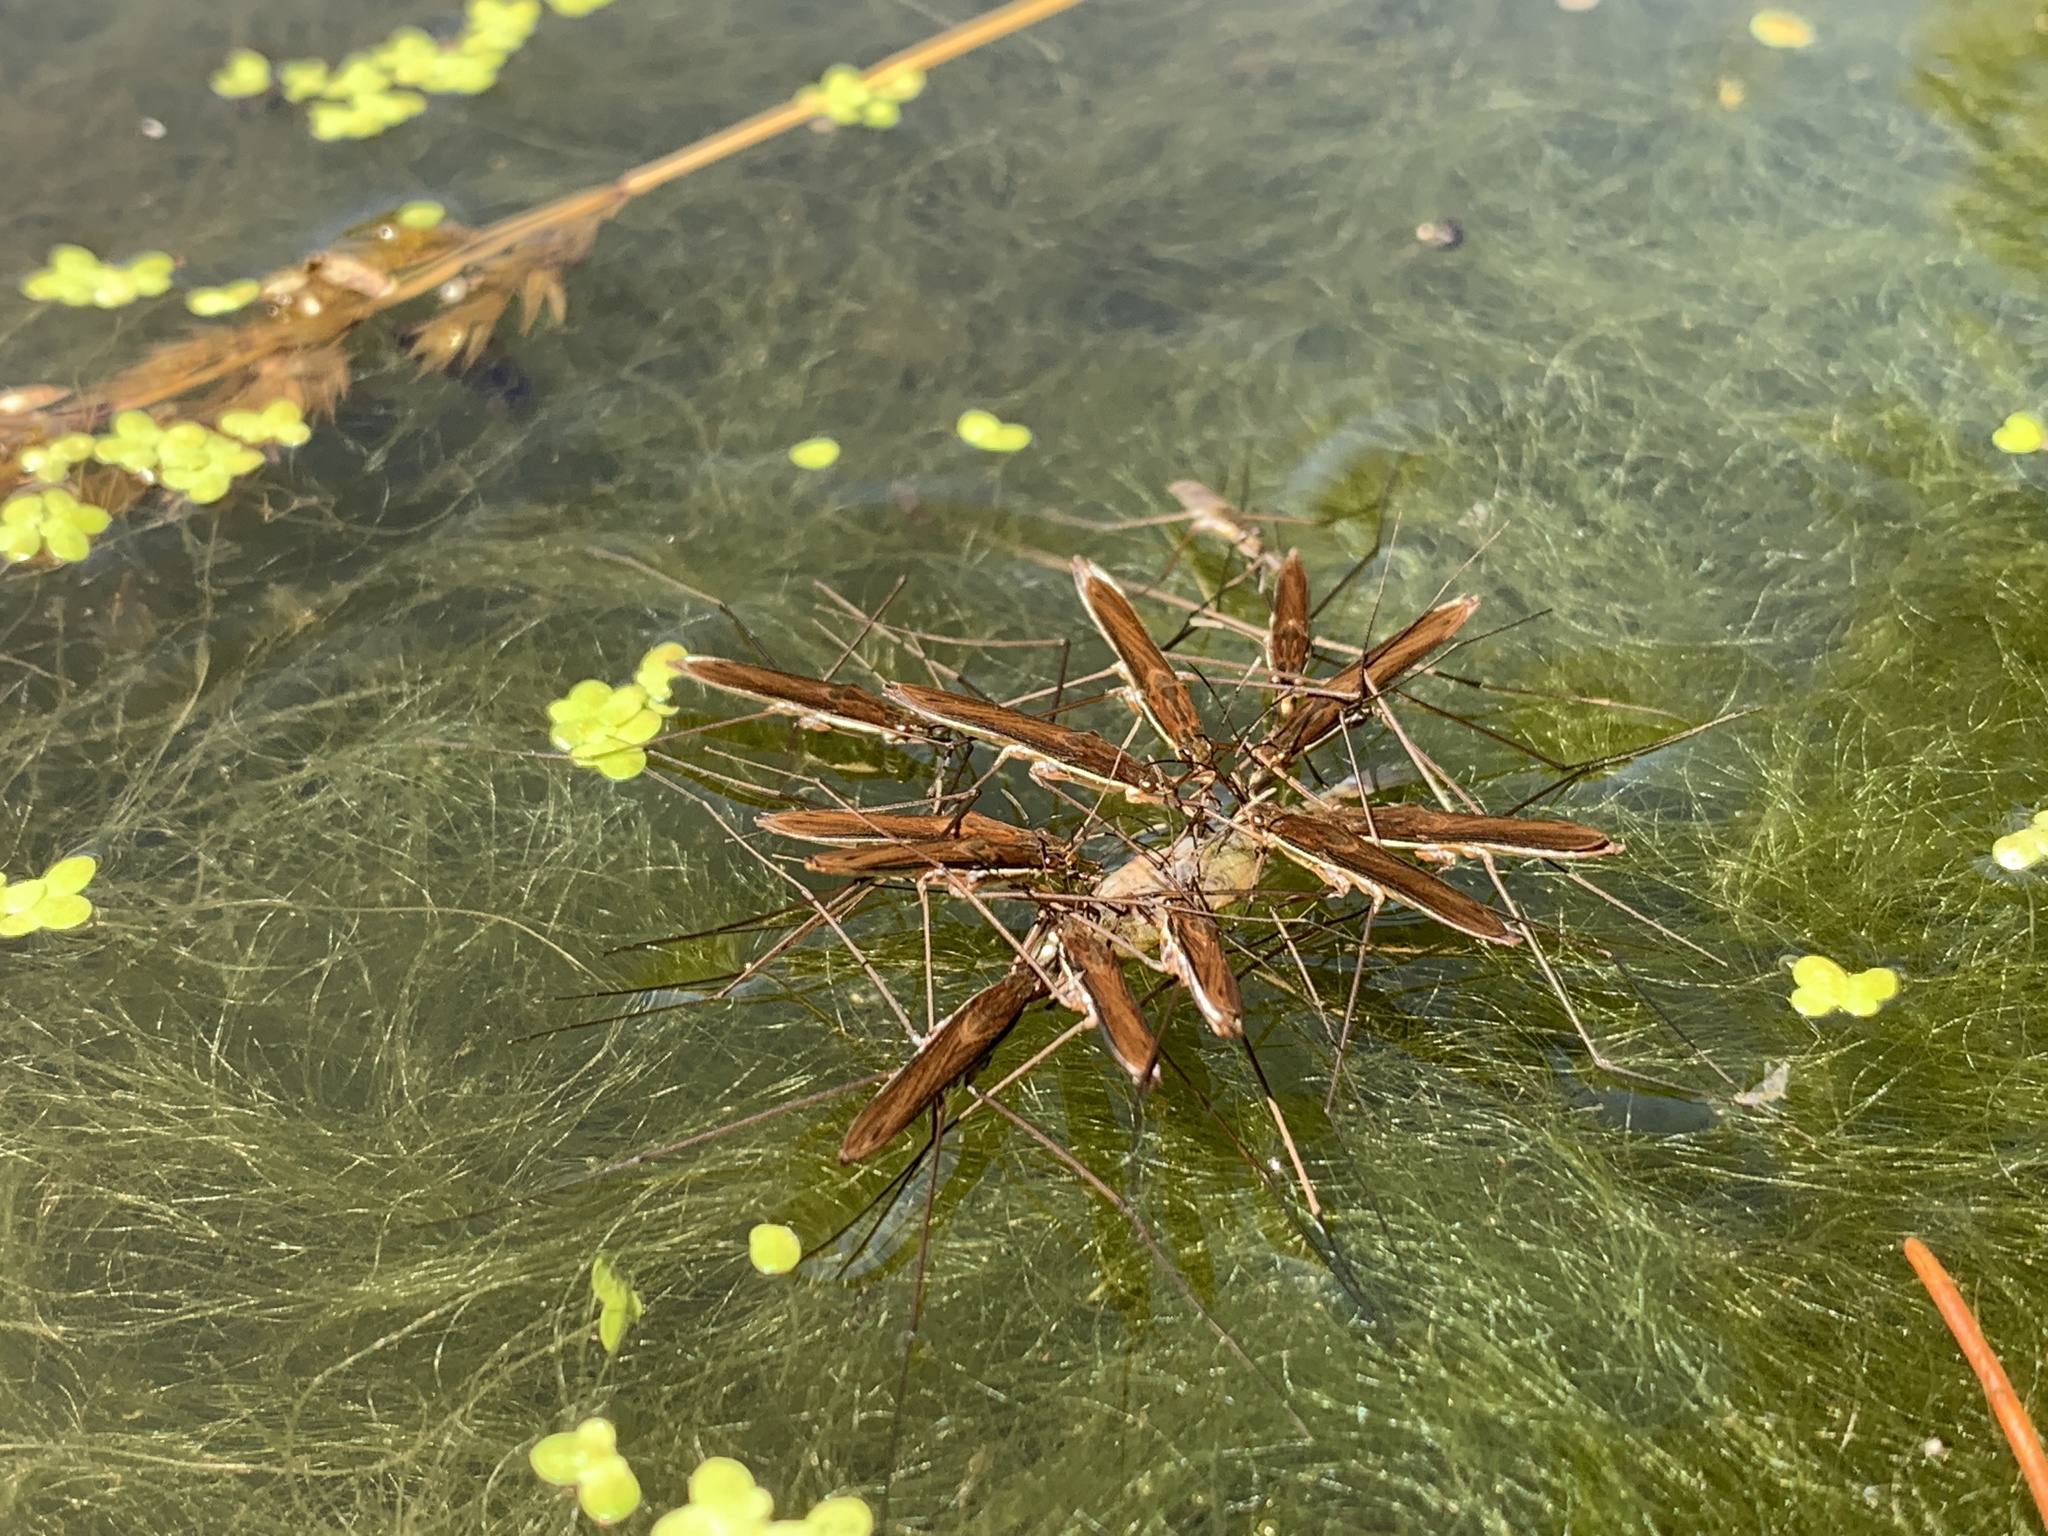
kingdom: Animalia
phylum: Arthropoda
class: Insecta
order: Hemiptera
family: Gerridae
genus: Limnoporus
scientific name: Limnoporus dissortis
